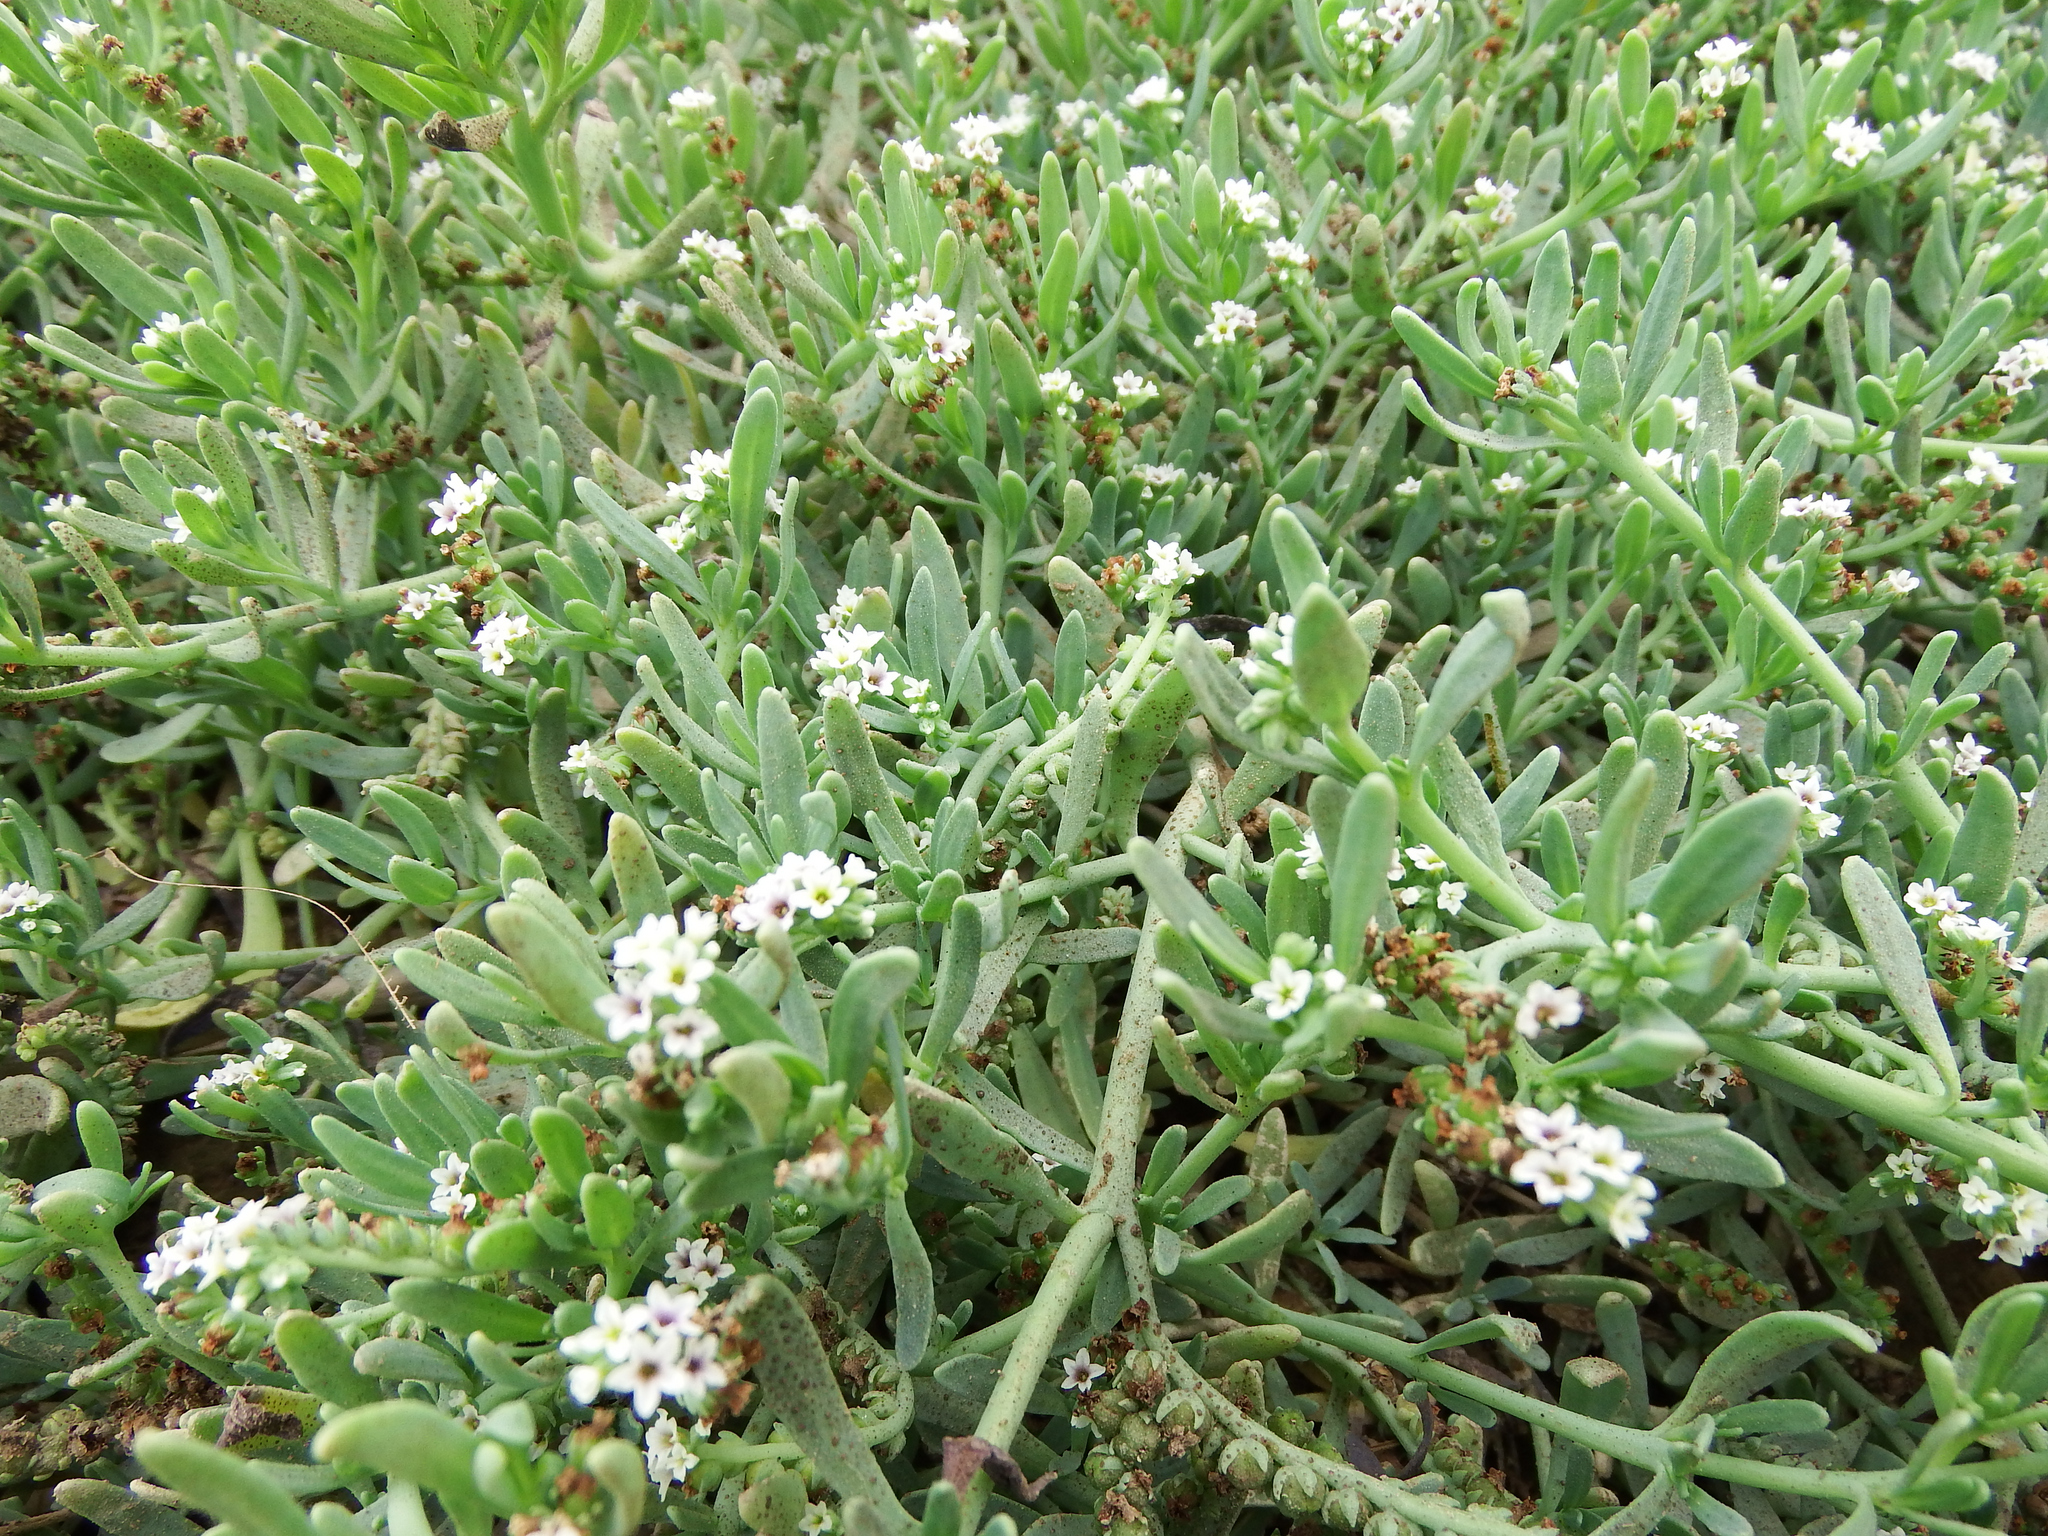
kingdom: Plantae
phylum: Tracheophyta
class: Magnoliopsida
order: Boraginales
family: Heliotropiaceae
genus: Heliotropium
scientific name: Heliotropium curassavicum
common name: Seaside heliotrope
